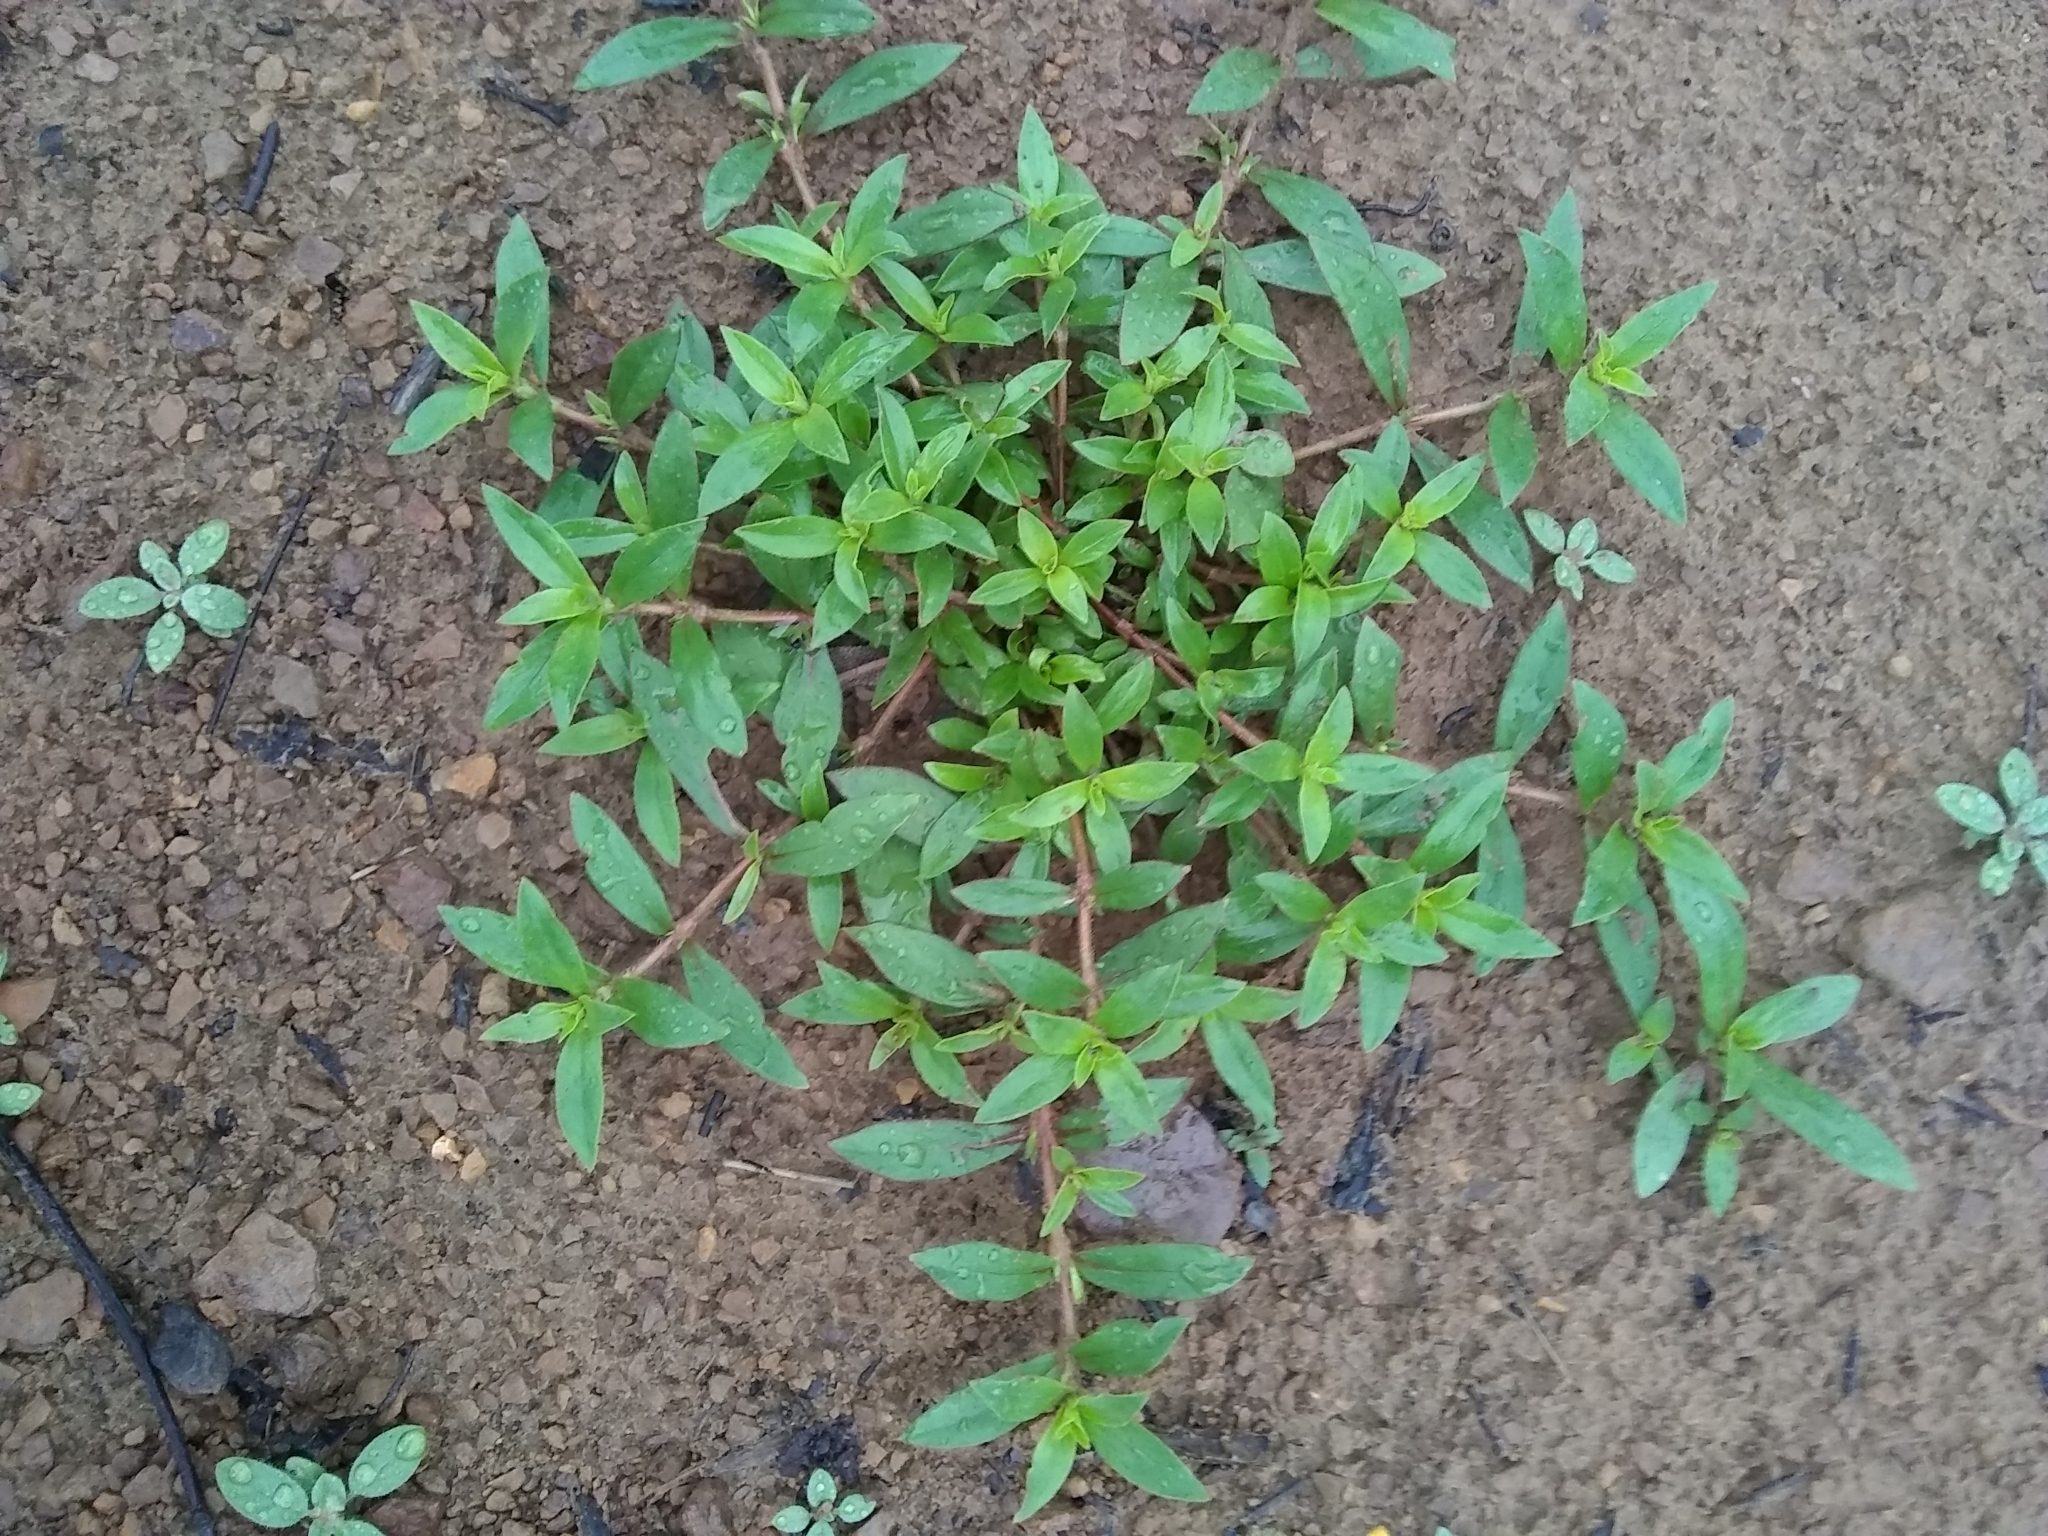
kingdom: Plantae
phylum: Tracheophyta
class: Magnoliopsida
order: Gentianales
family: Rubiaceae
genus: Diodia
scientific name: Diodia virginiana
